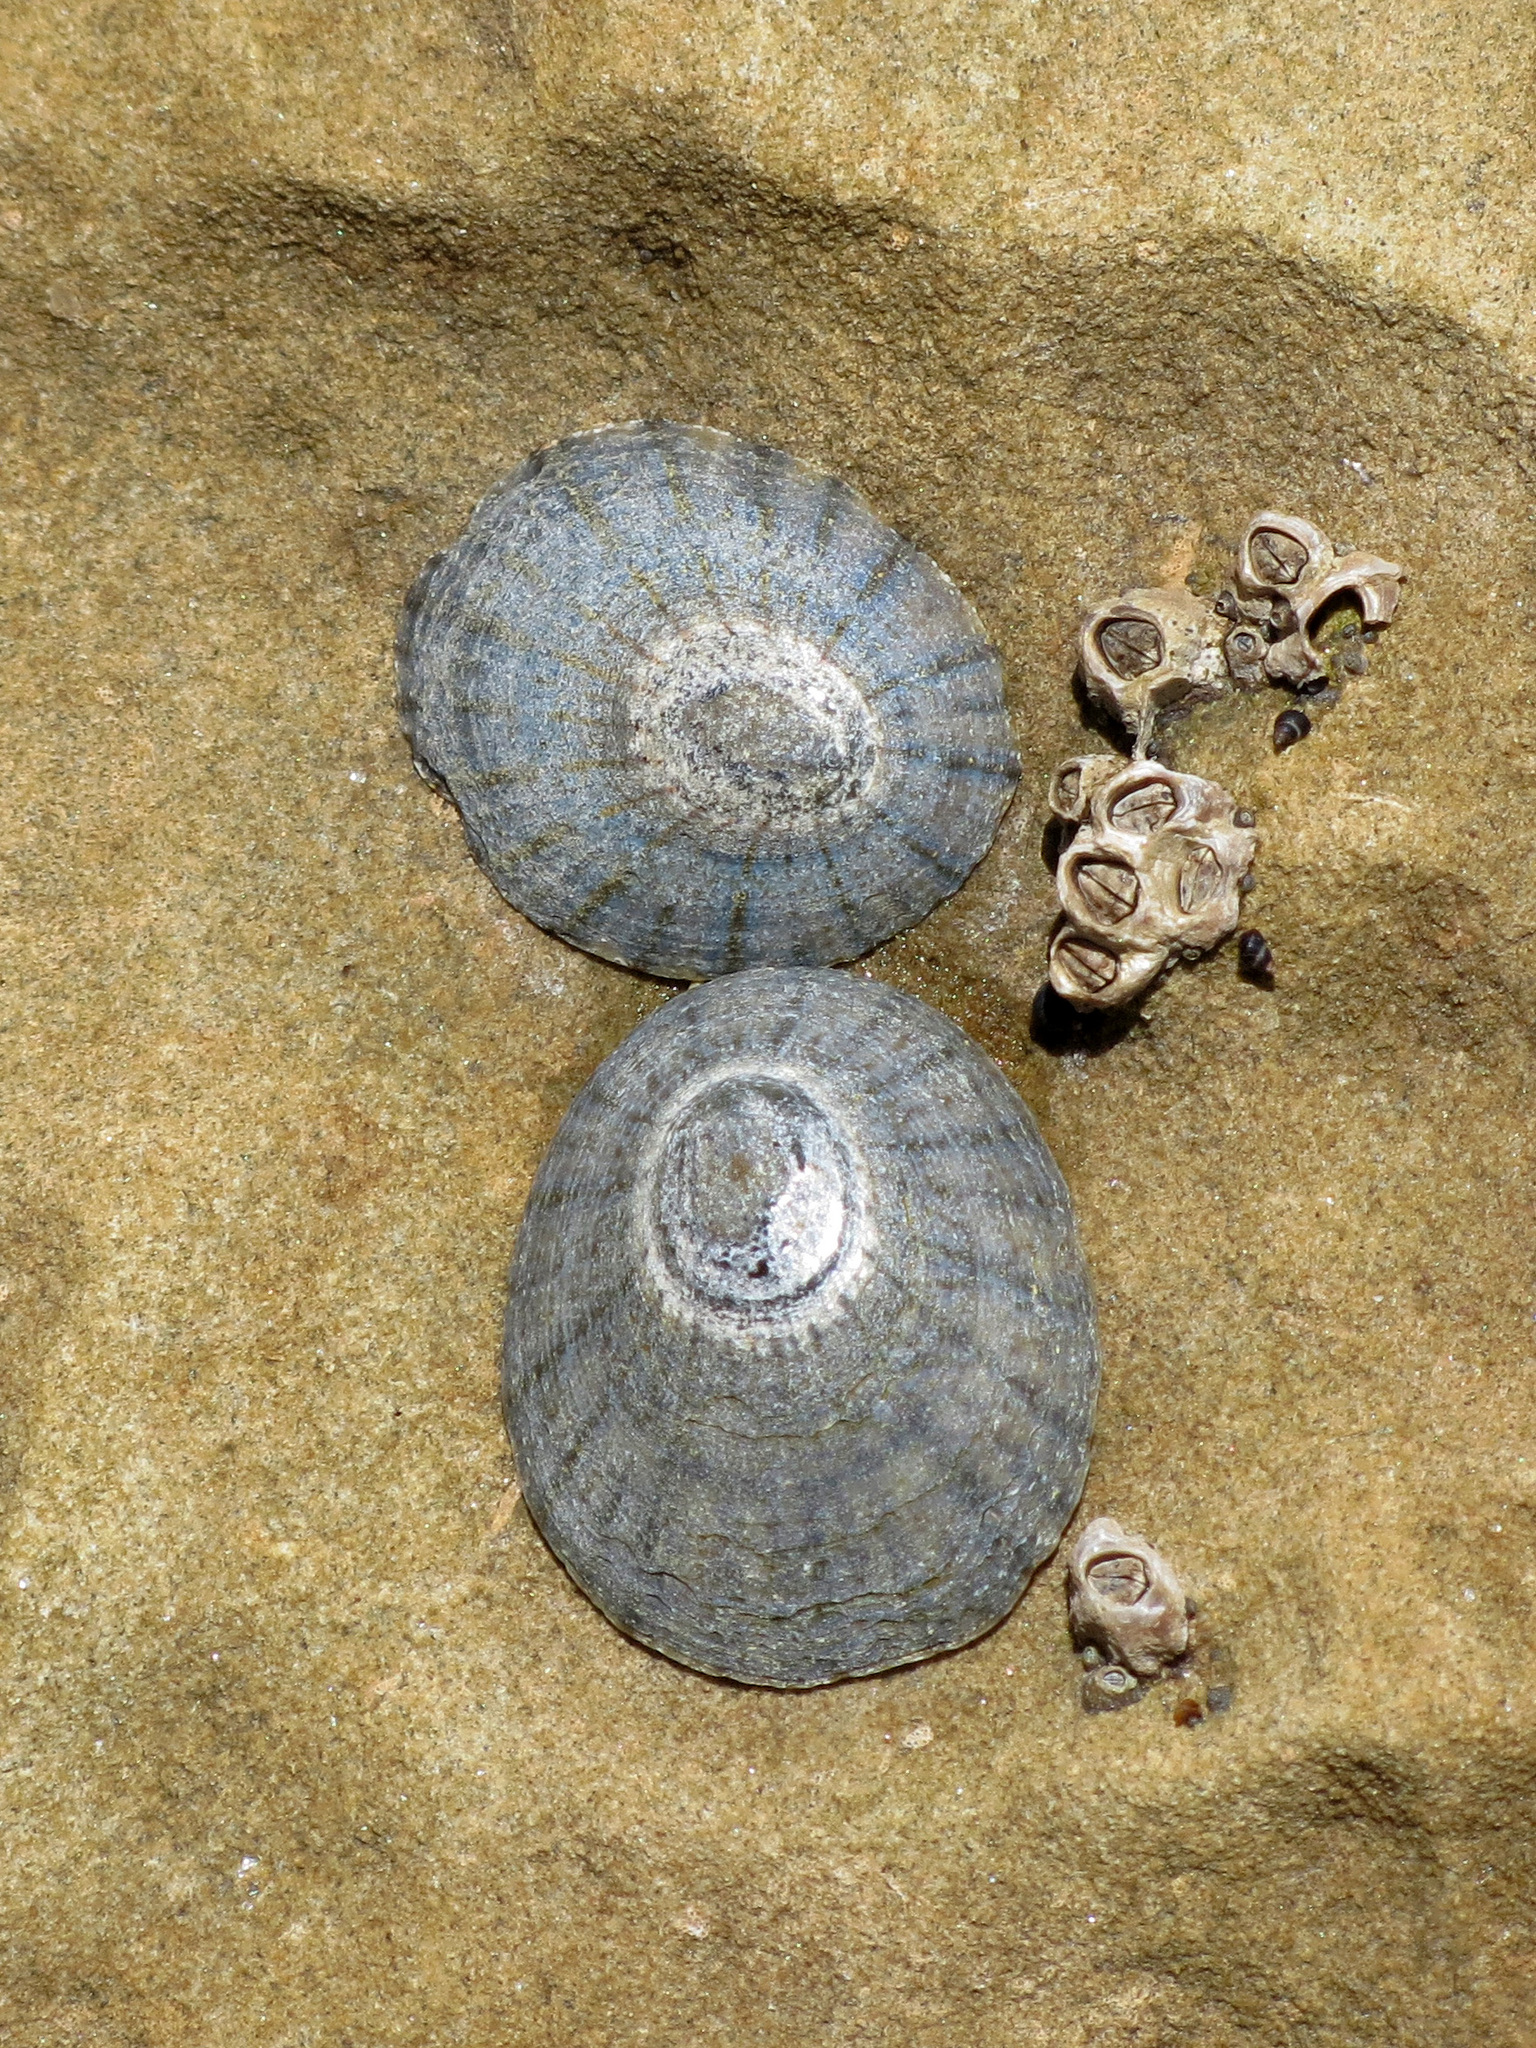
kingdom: Animalia
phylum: Mollusca
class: Gastropoda
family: Nacellidae
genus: Cellana
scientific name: Cellana radians
